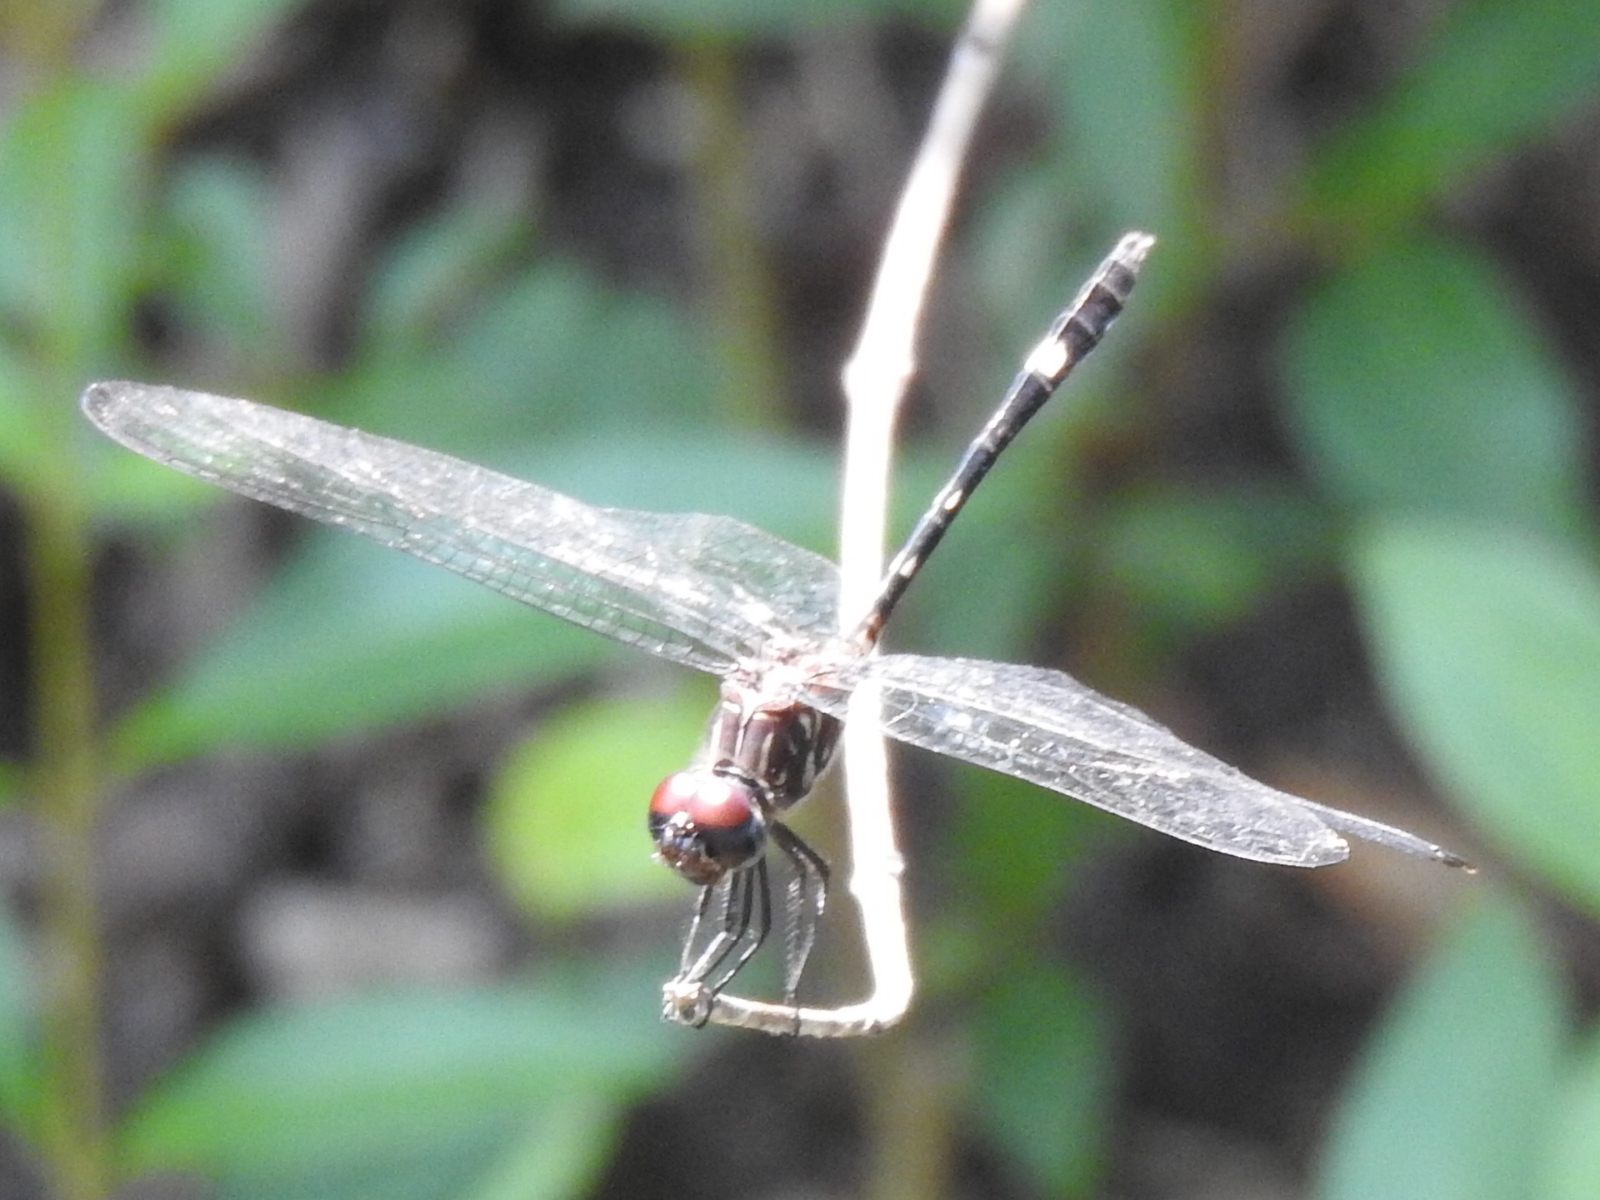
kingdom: Animalia
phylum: Arthropoda
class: Insecta
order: Odonata
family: Libellulidae
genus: Dythemis
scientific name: Dythemis velox
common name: Swift setwing
